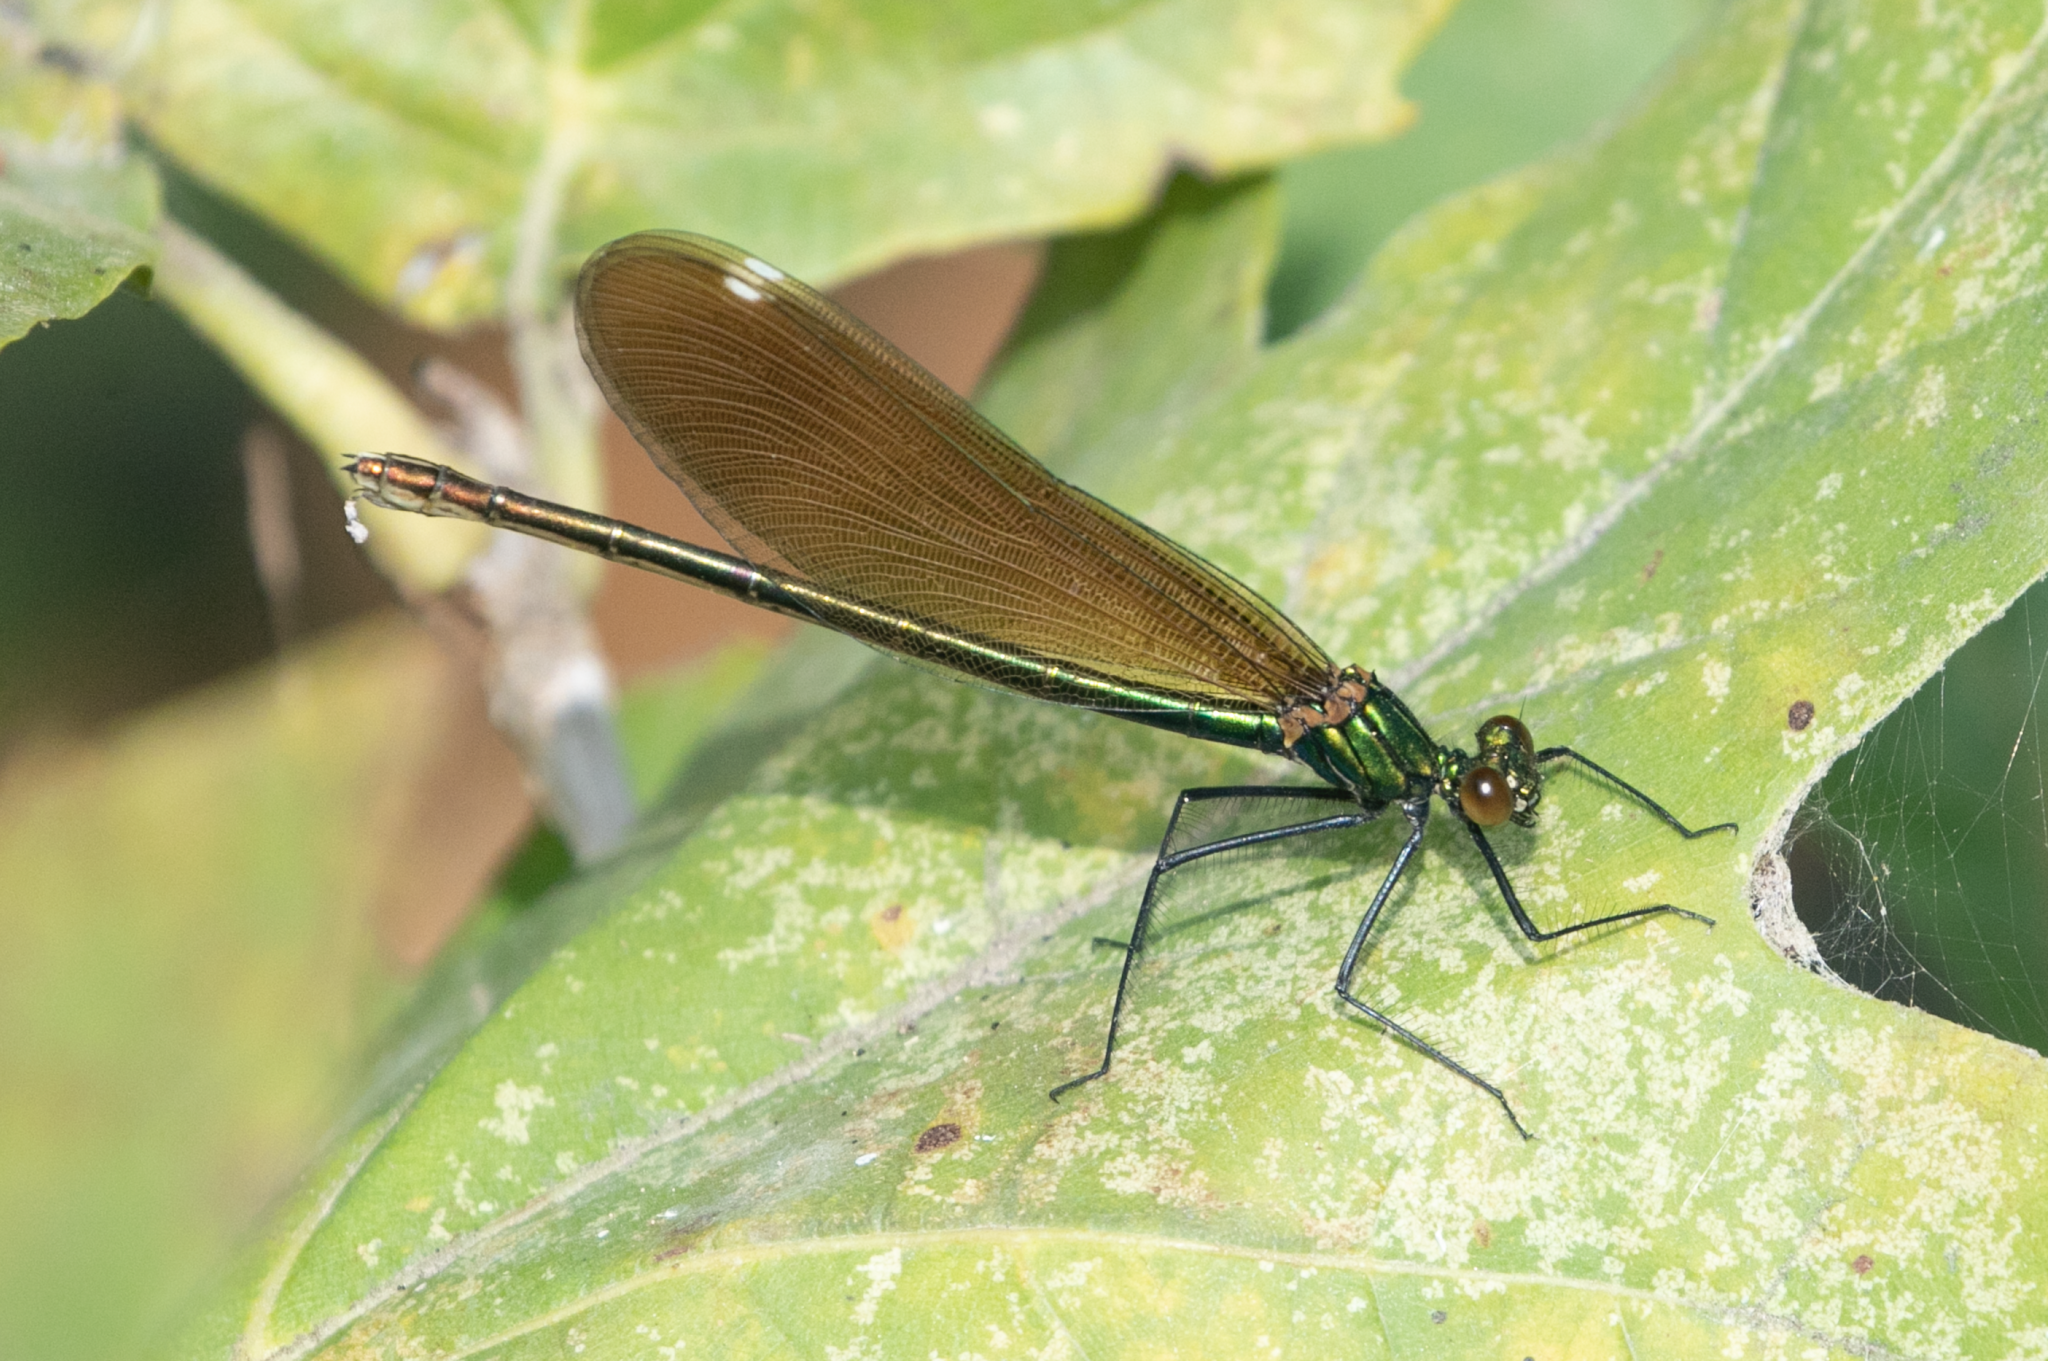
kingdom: Animalia
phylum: Arthropoda
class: Insecta
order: Odonata
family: Calopterygidae
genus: Calopteryx
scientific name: Calopteryx virgo
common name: Beautiful demoiselle
